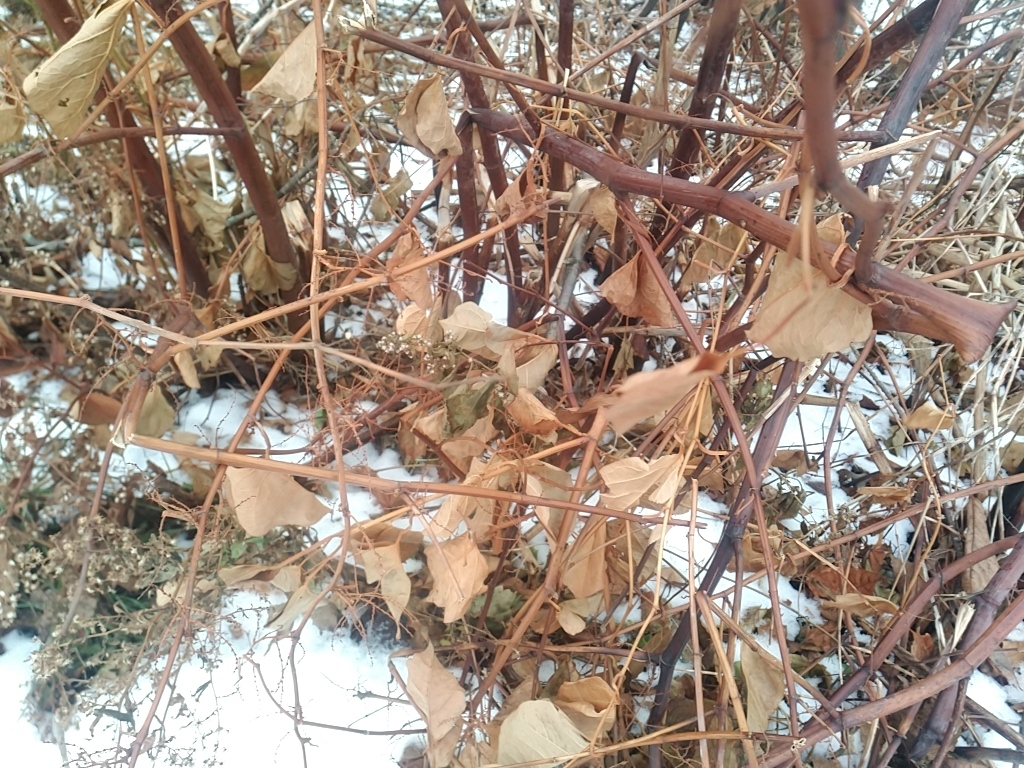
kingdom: Plantae
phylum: Tracheophyta
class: Magnoliopsida
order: Caryophyllales
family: Polygonaceae
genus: Reynoutria
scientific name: Reynoutria japonica
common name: Japanese knotweed
